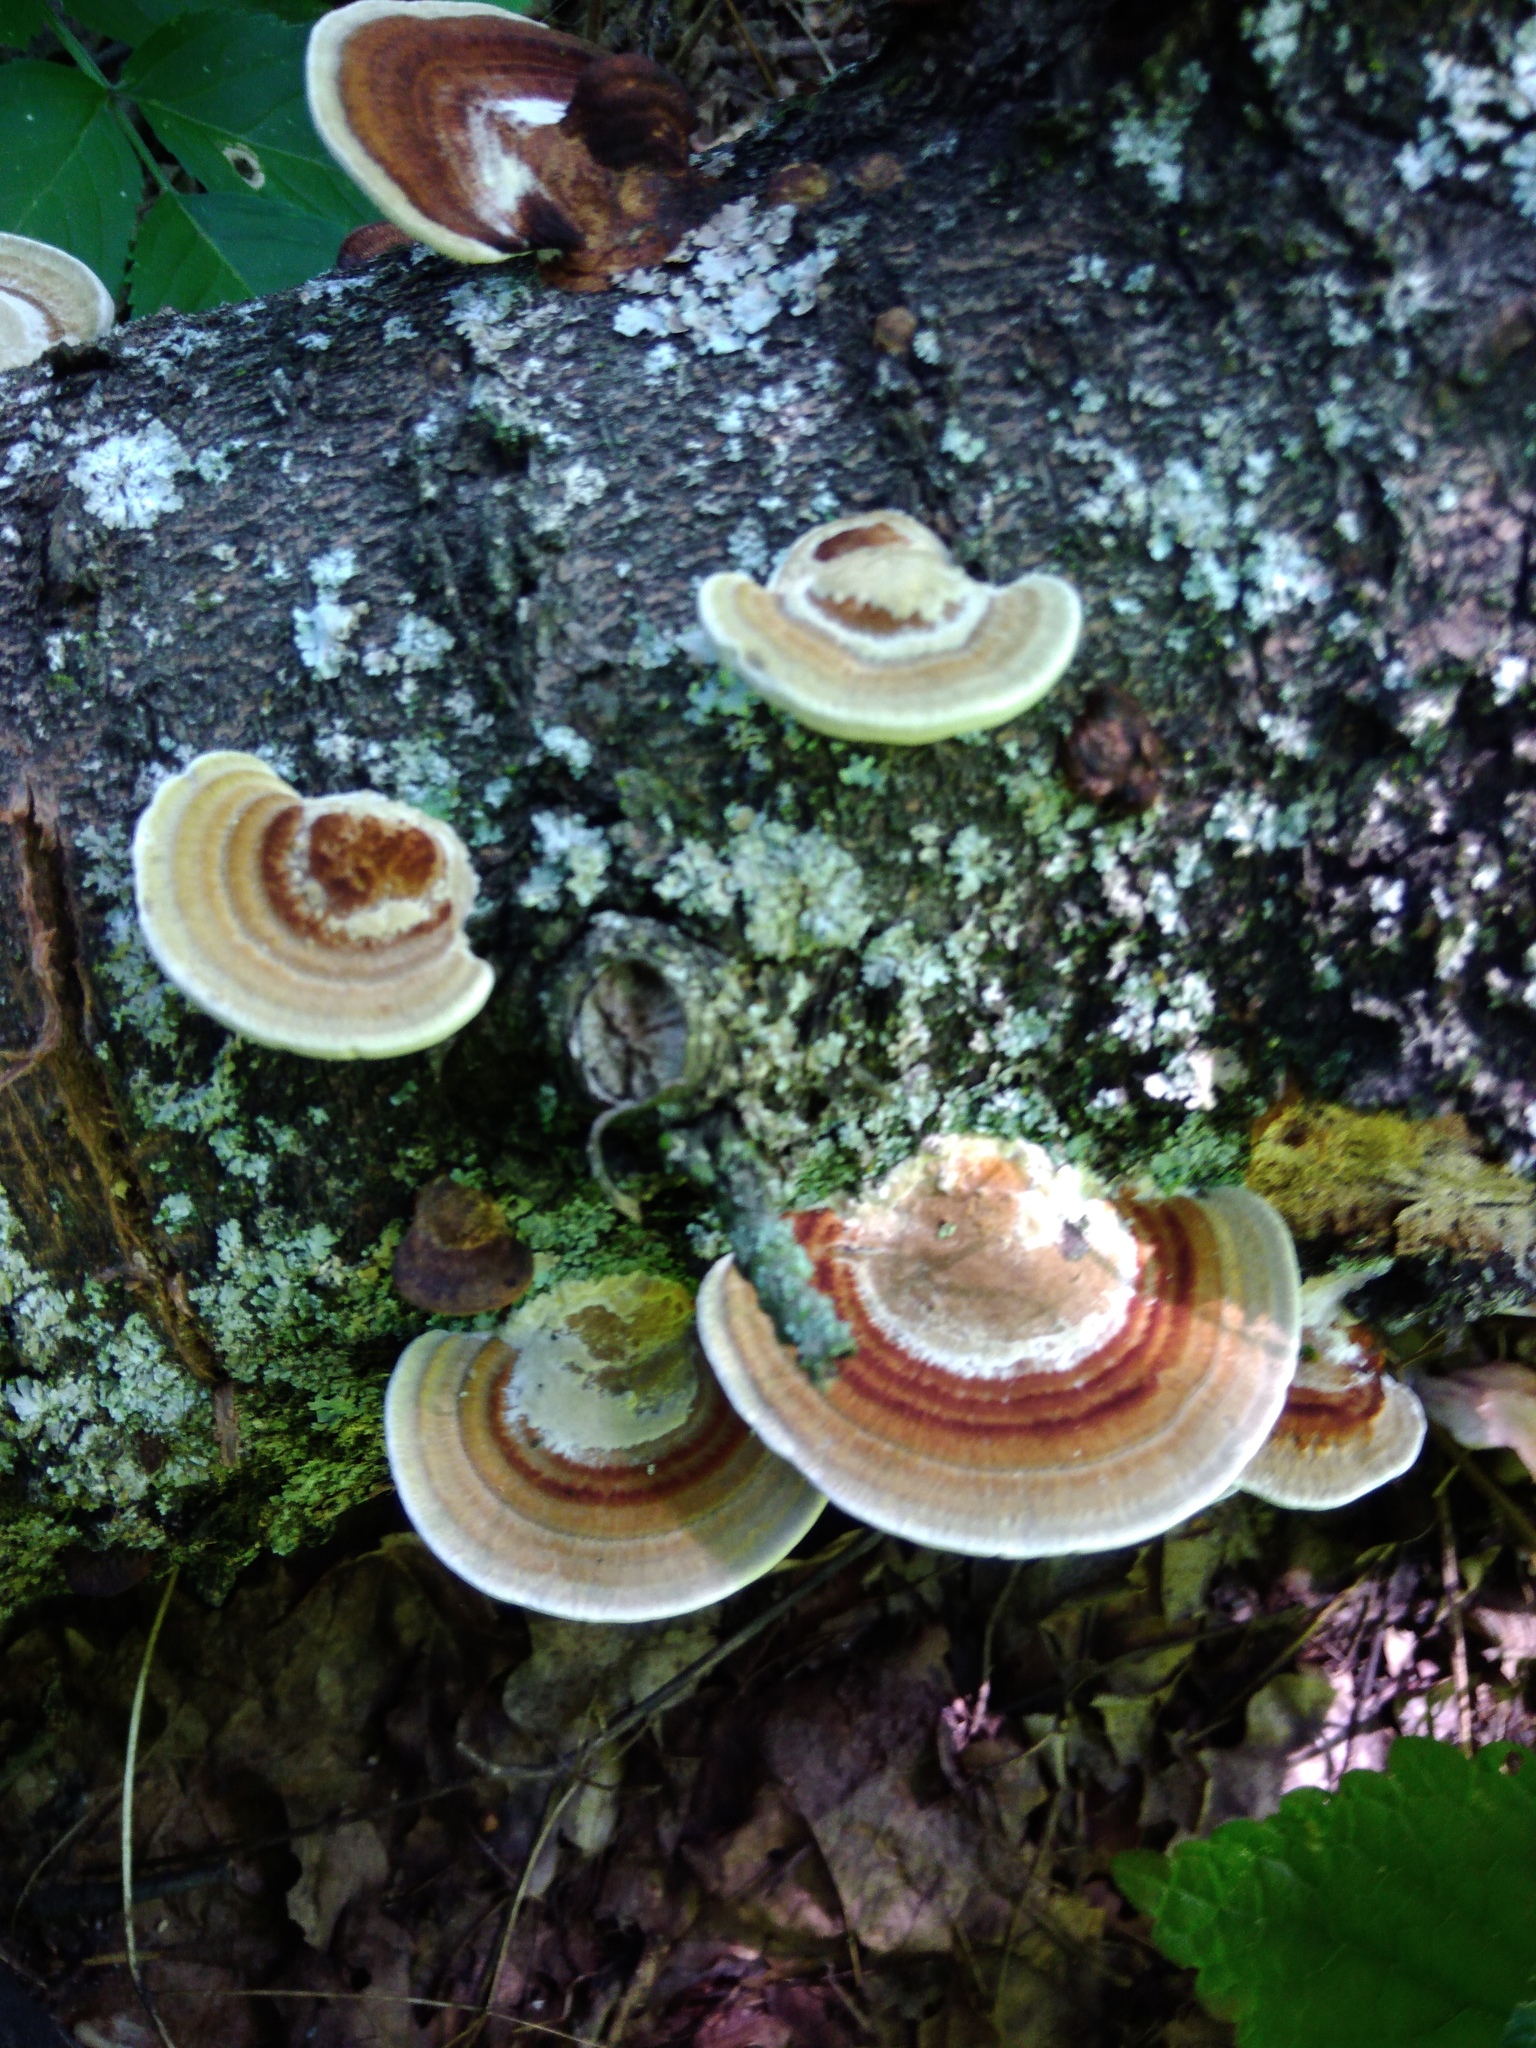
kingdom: Fungi
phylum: Basidiomycota
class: Agaricomycetes
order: Polyporales
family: Polyporaceae
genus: Daedaleopsis
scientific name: Daedaleopsis confragosa
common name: Blushing bracket
